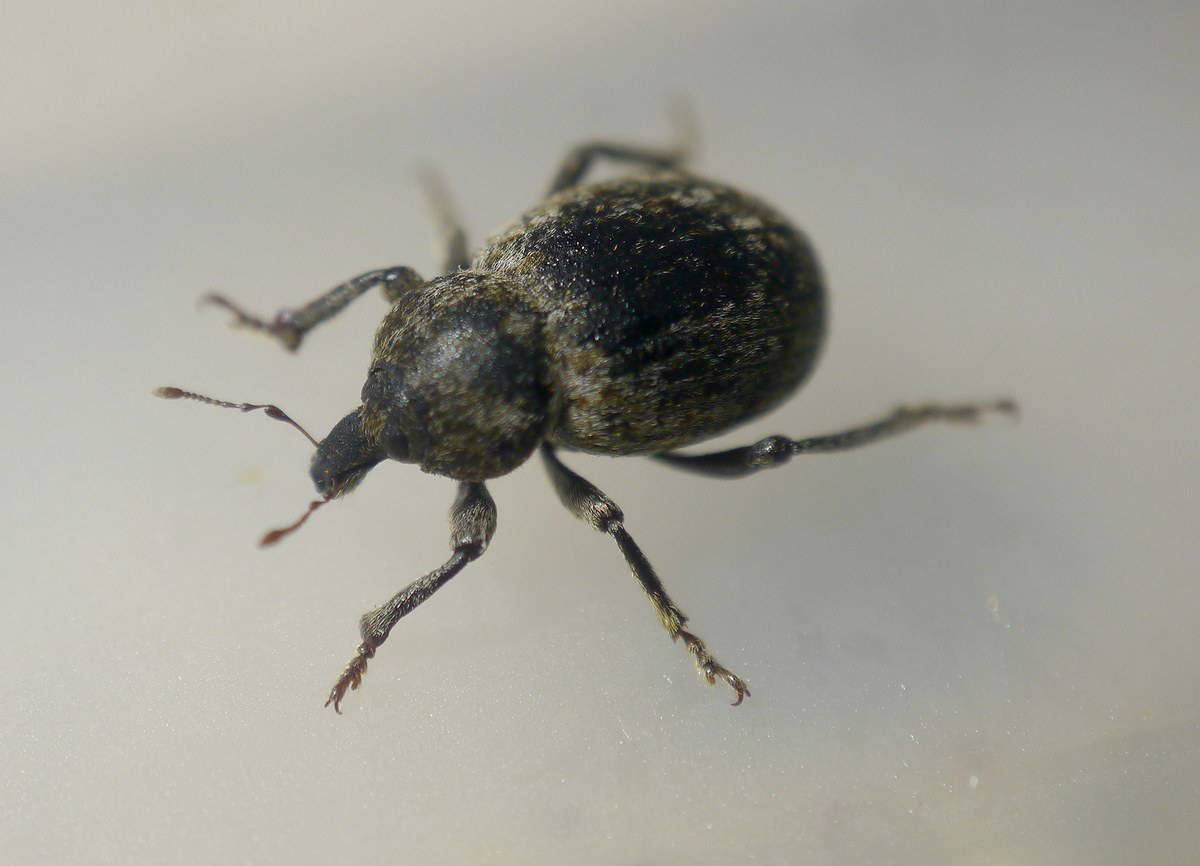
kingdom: Animalia
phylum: Arthropoda
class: Insecta
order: Coleoptera
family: Curculionidae
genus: Hypera
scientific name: Hypera spissa
